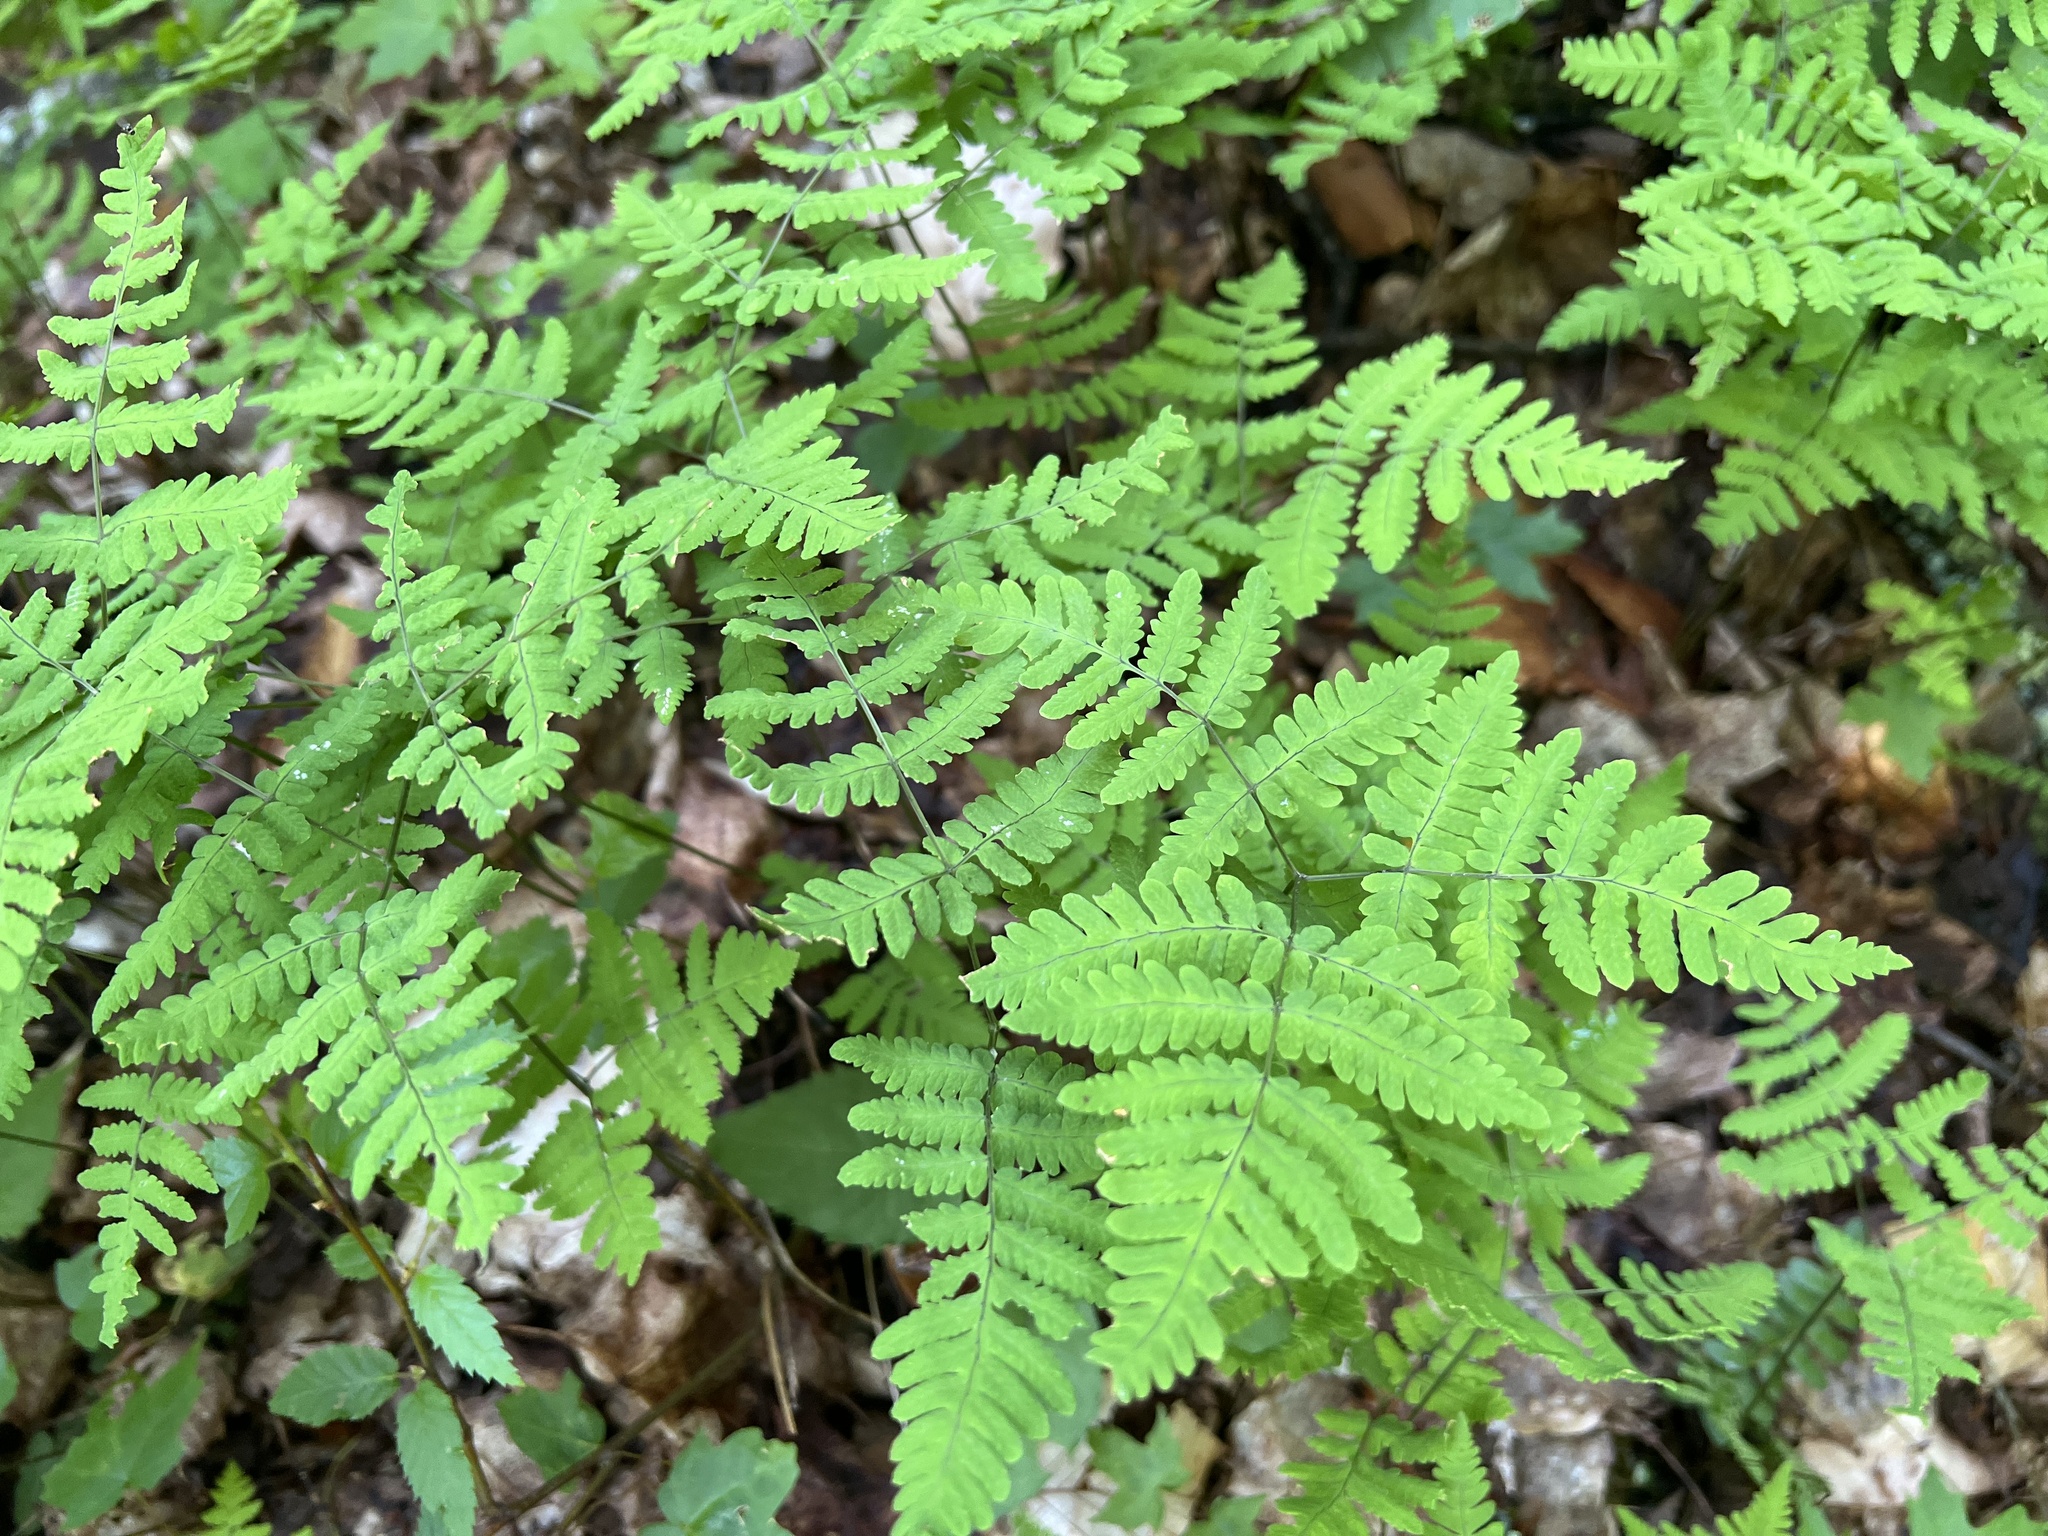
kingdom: Plantae
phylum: Tracheophyta
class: Polypodiopsida
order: Polypodiales
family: Cystopteridaceae
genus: Gymnocarpium
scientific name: Gymnocarpium dryopteris
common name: Oak fern
